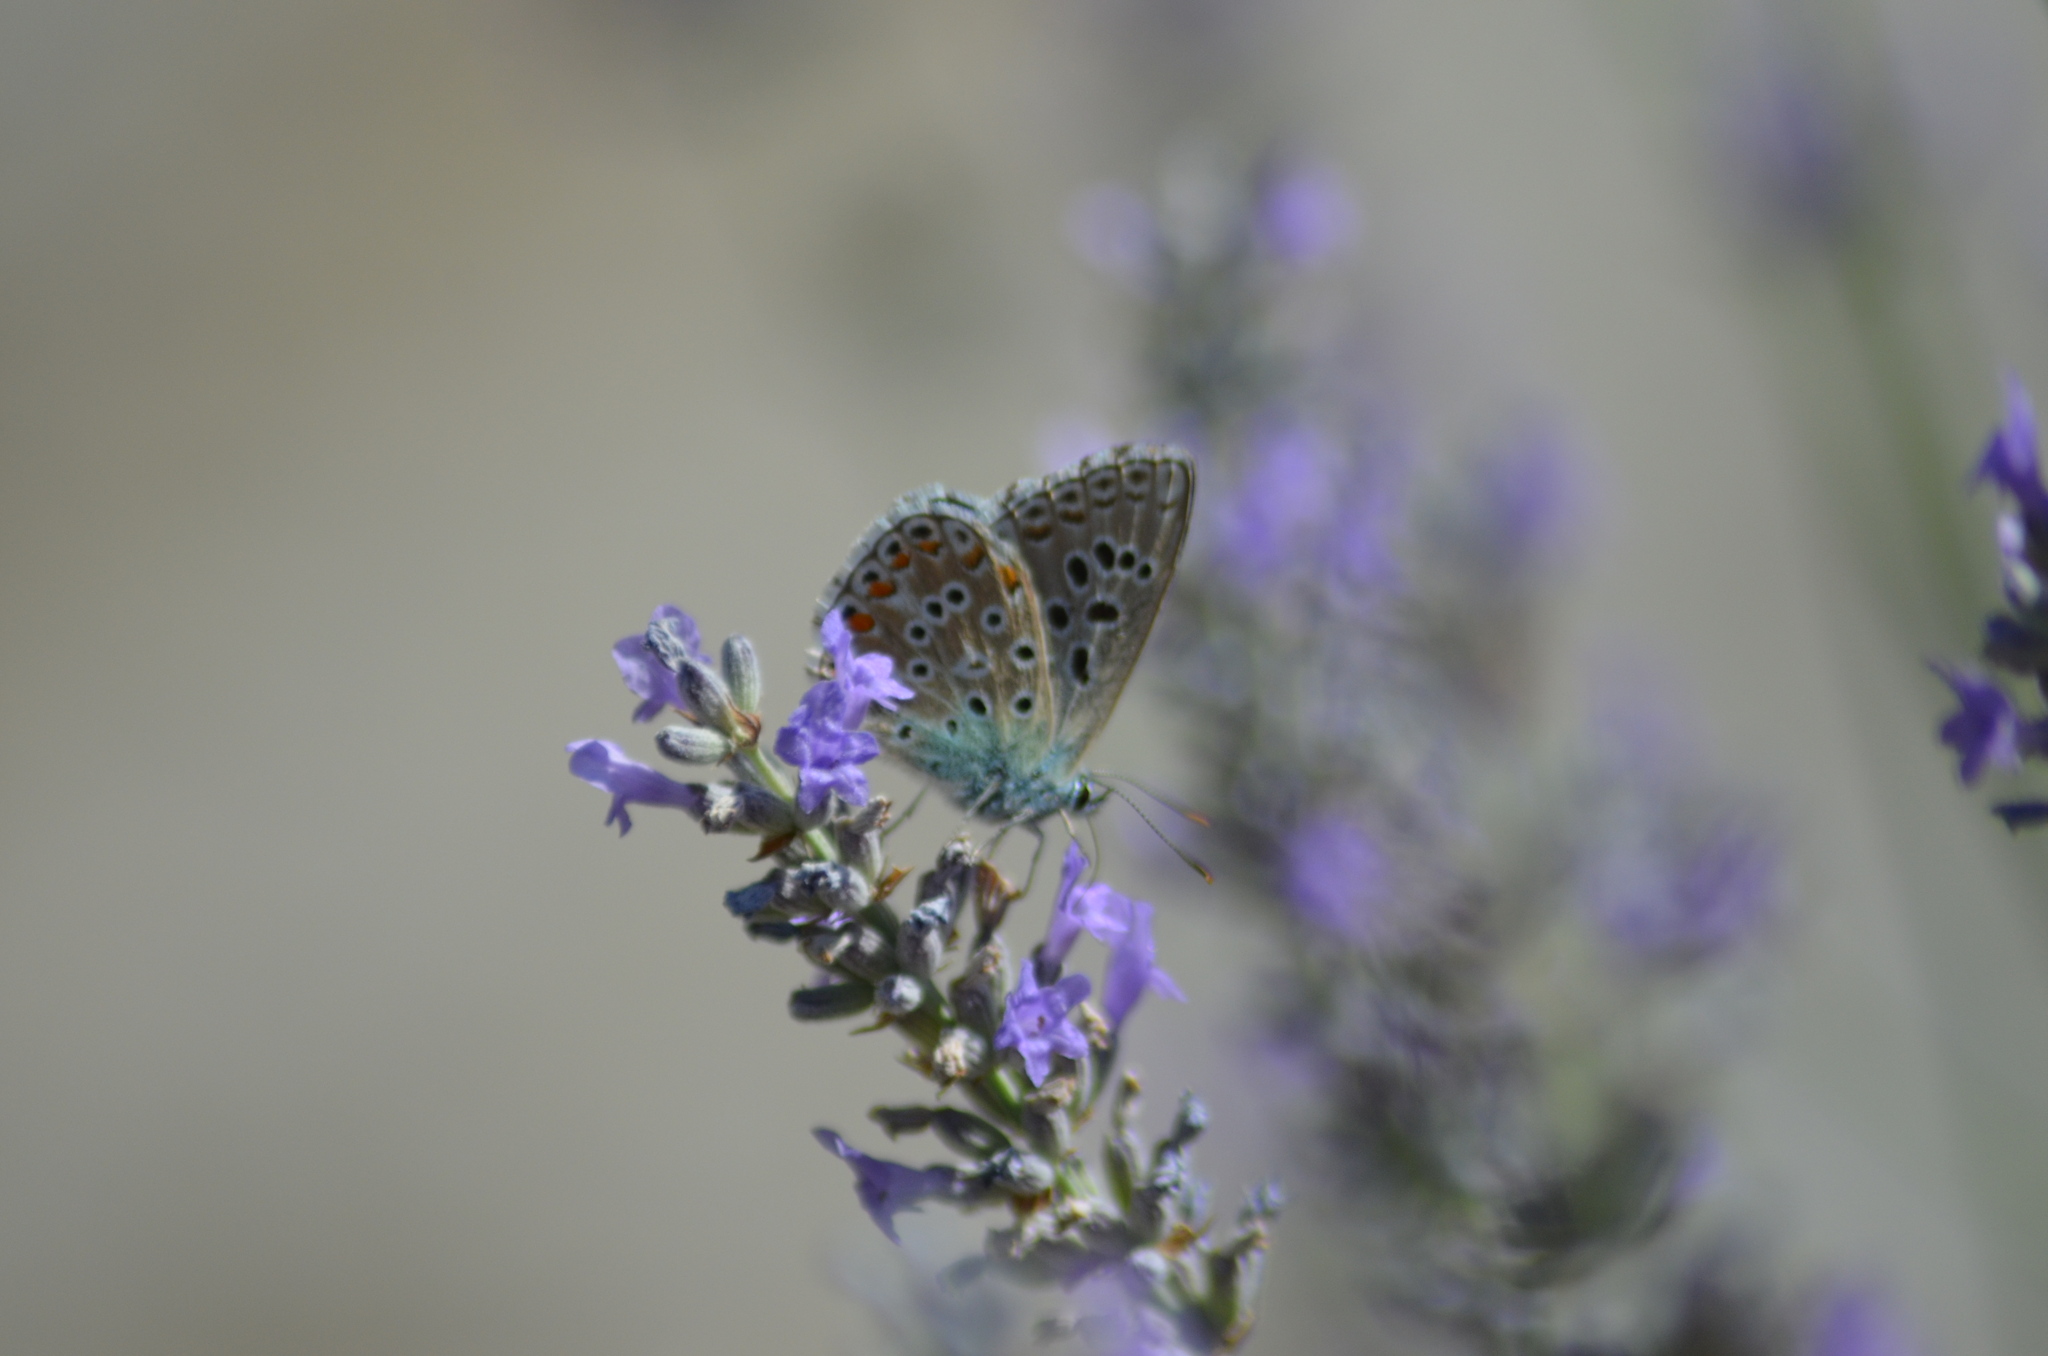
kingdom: Animalia
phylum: Arthropoda
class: Insecta
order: Lepidoptera
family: Lycaenidae
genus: Lysandra
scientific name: Lysandra bellargus
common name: Adonis blue
